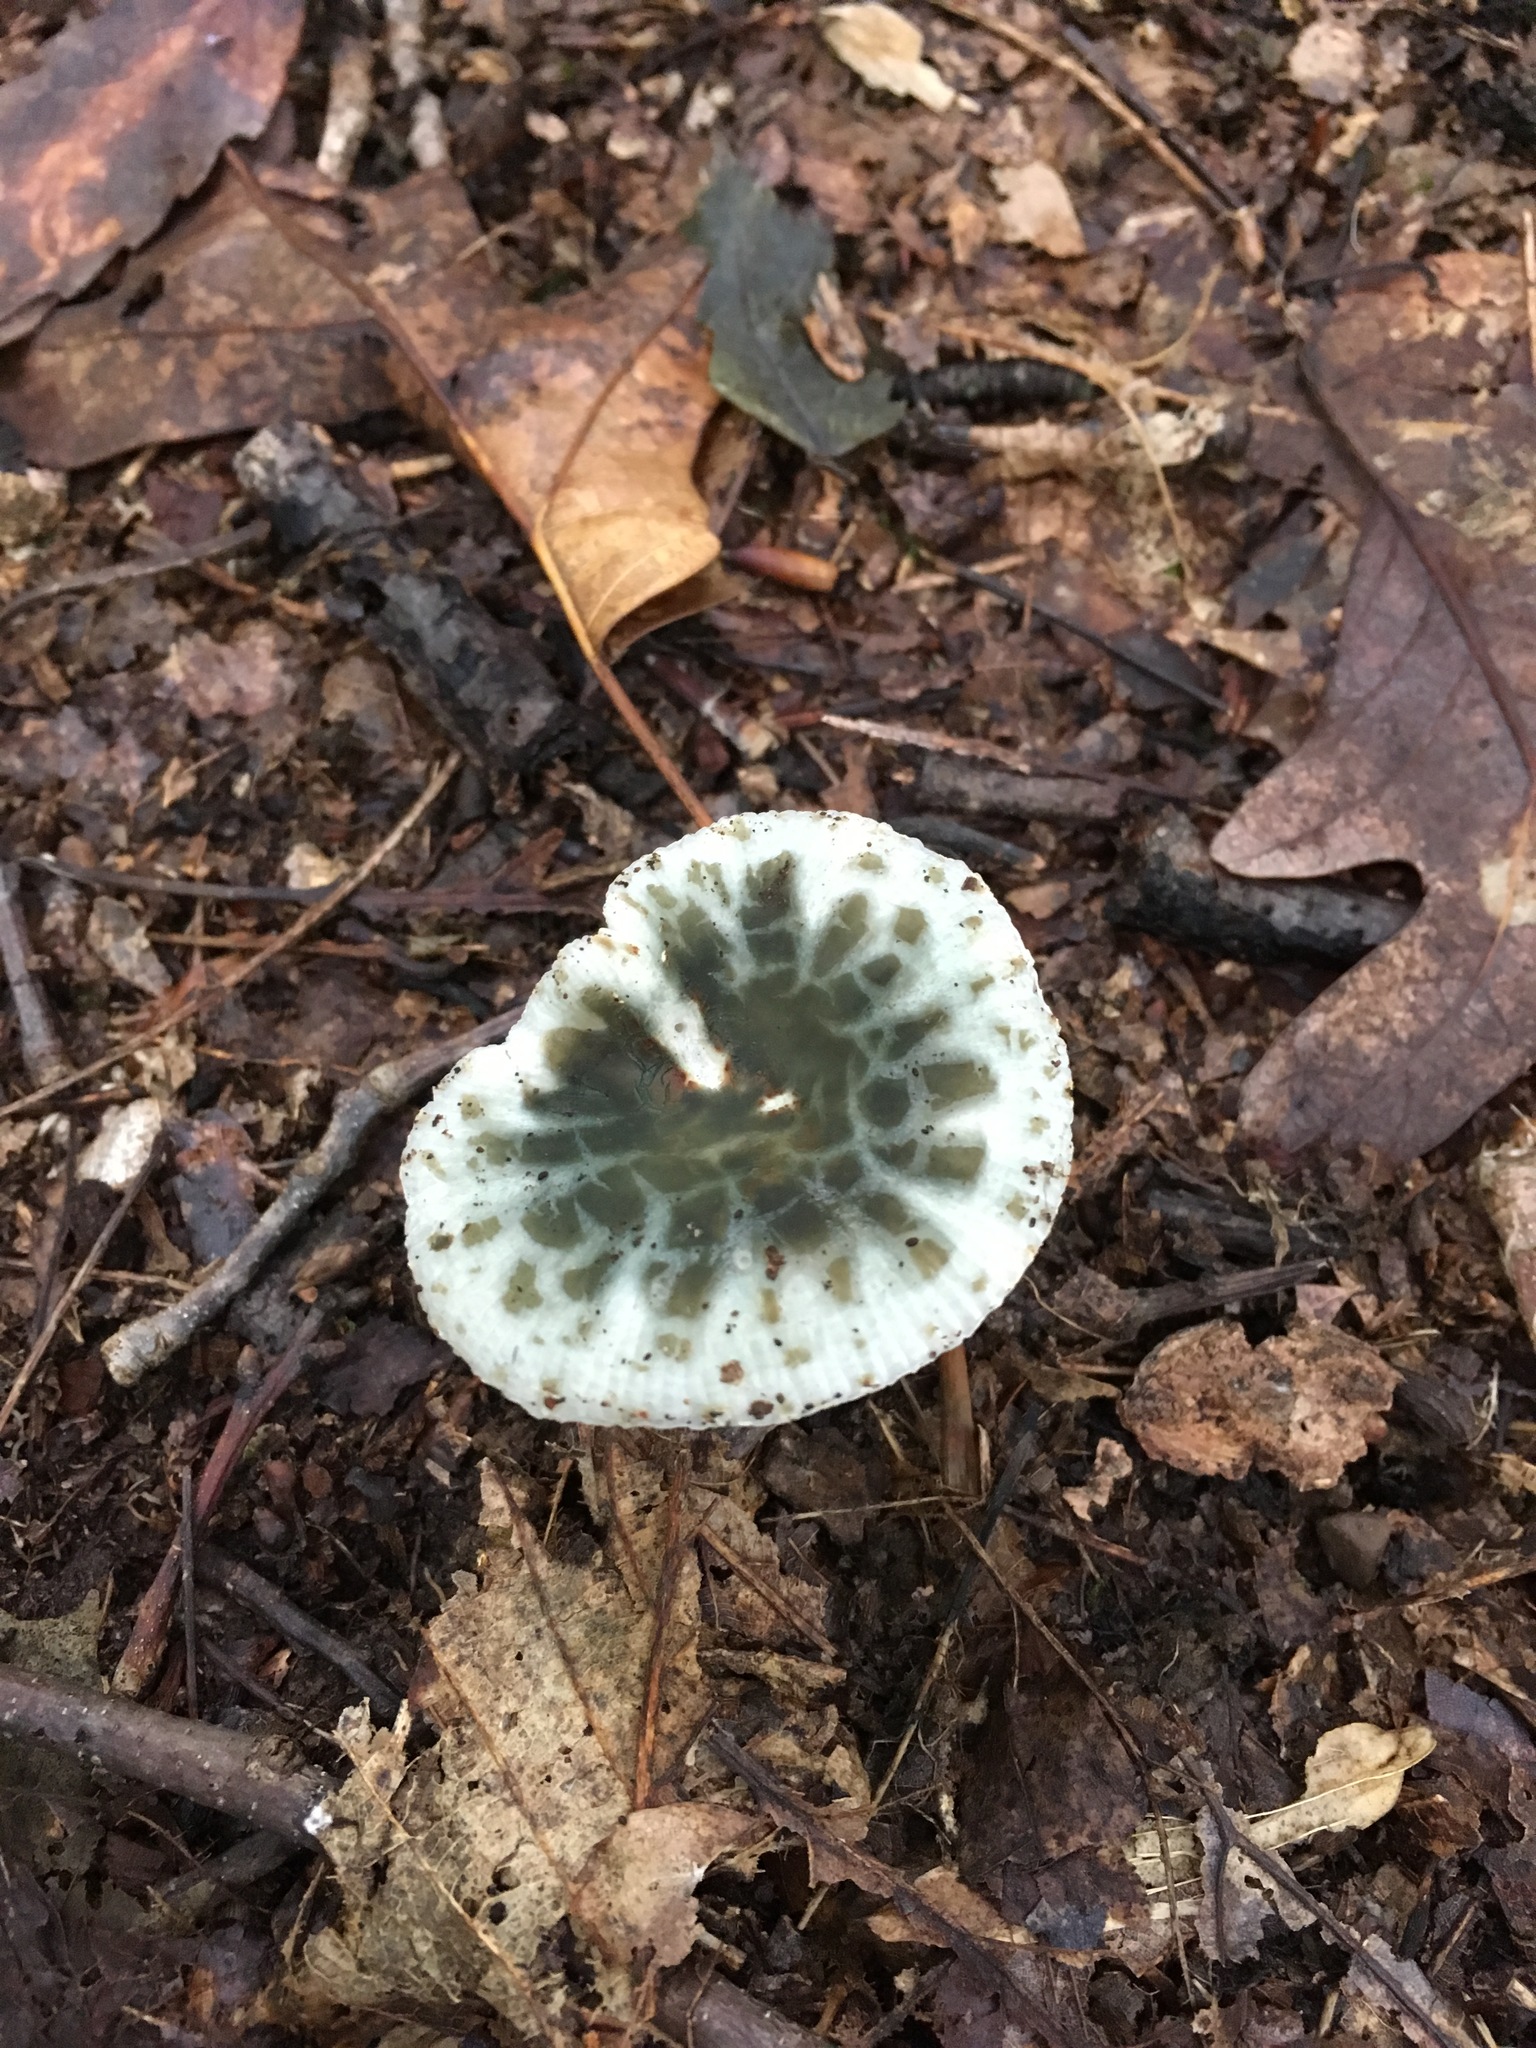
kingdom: Fungi
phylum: Basidiomycota
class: Agaricomycetes
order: Russulales
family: Russulaceae
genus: Russula
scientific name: Russula parvovirescens
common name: Blue-green cracking russula
